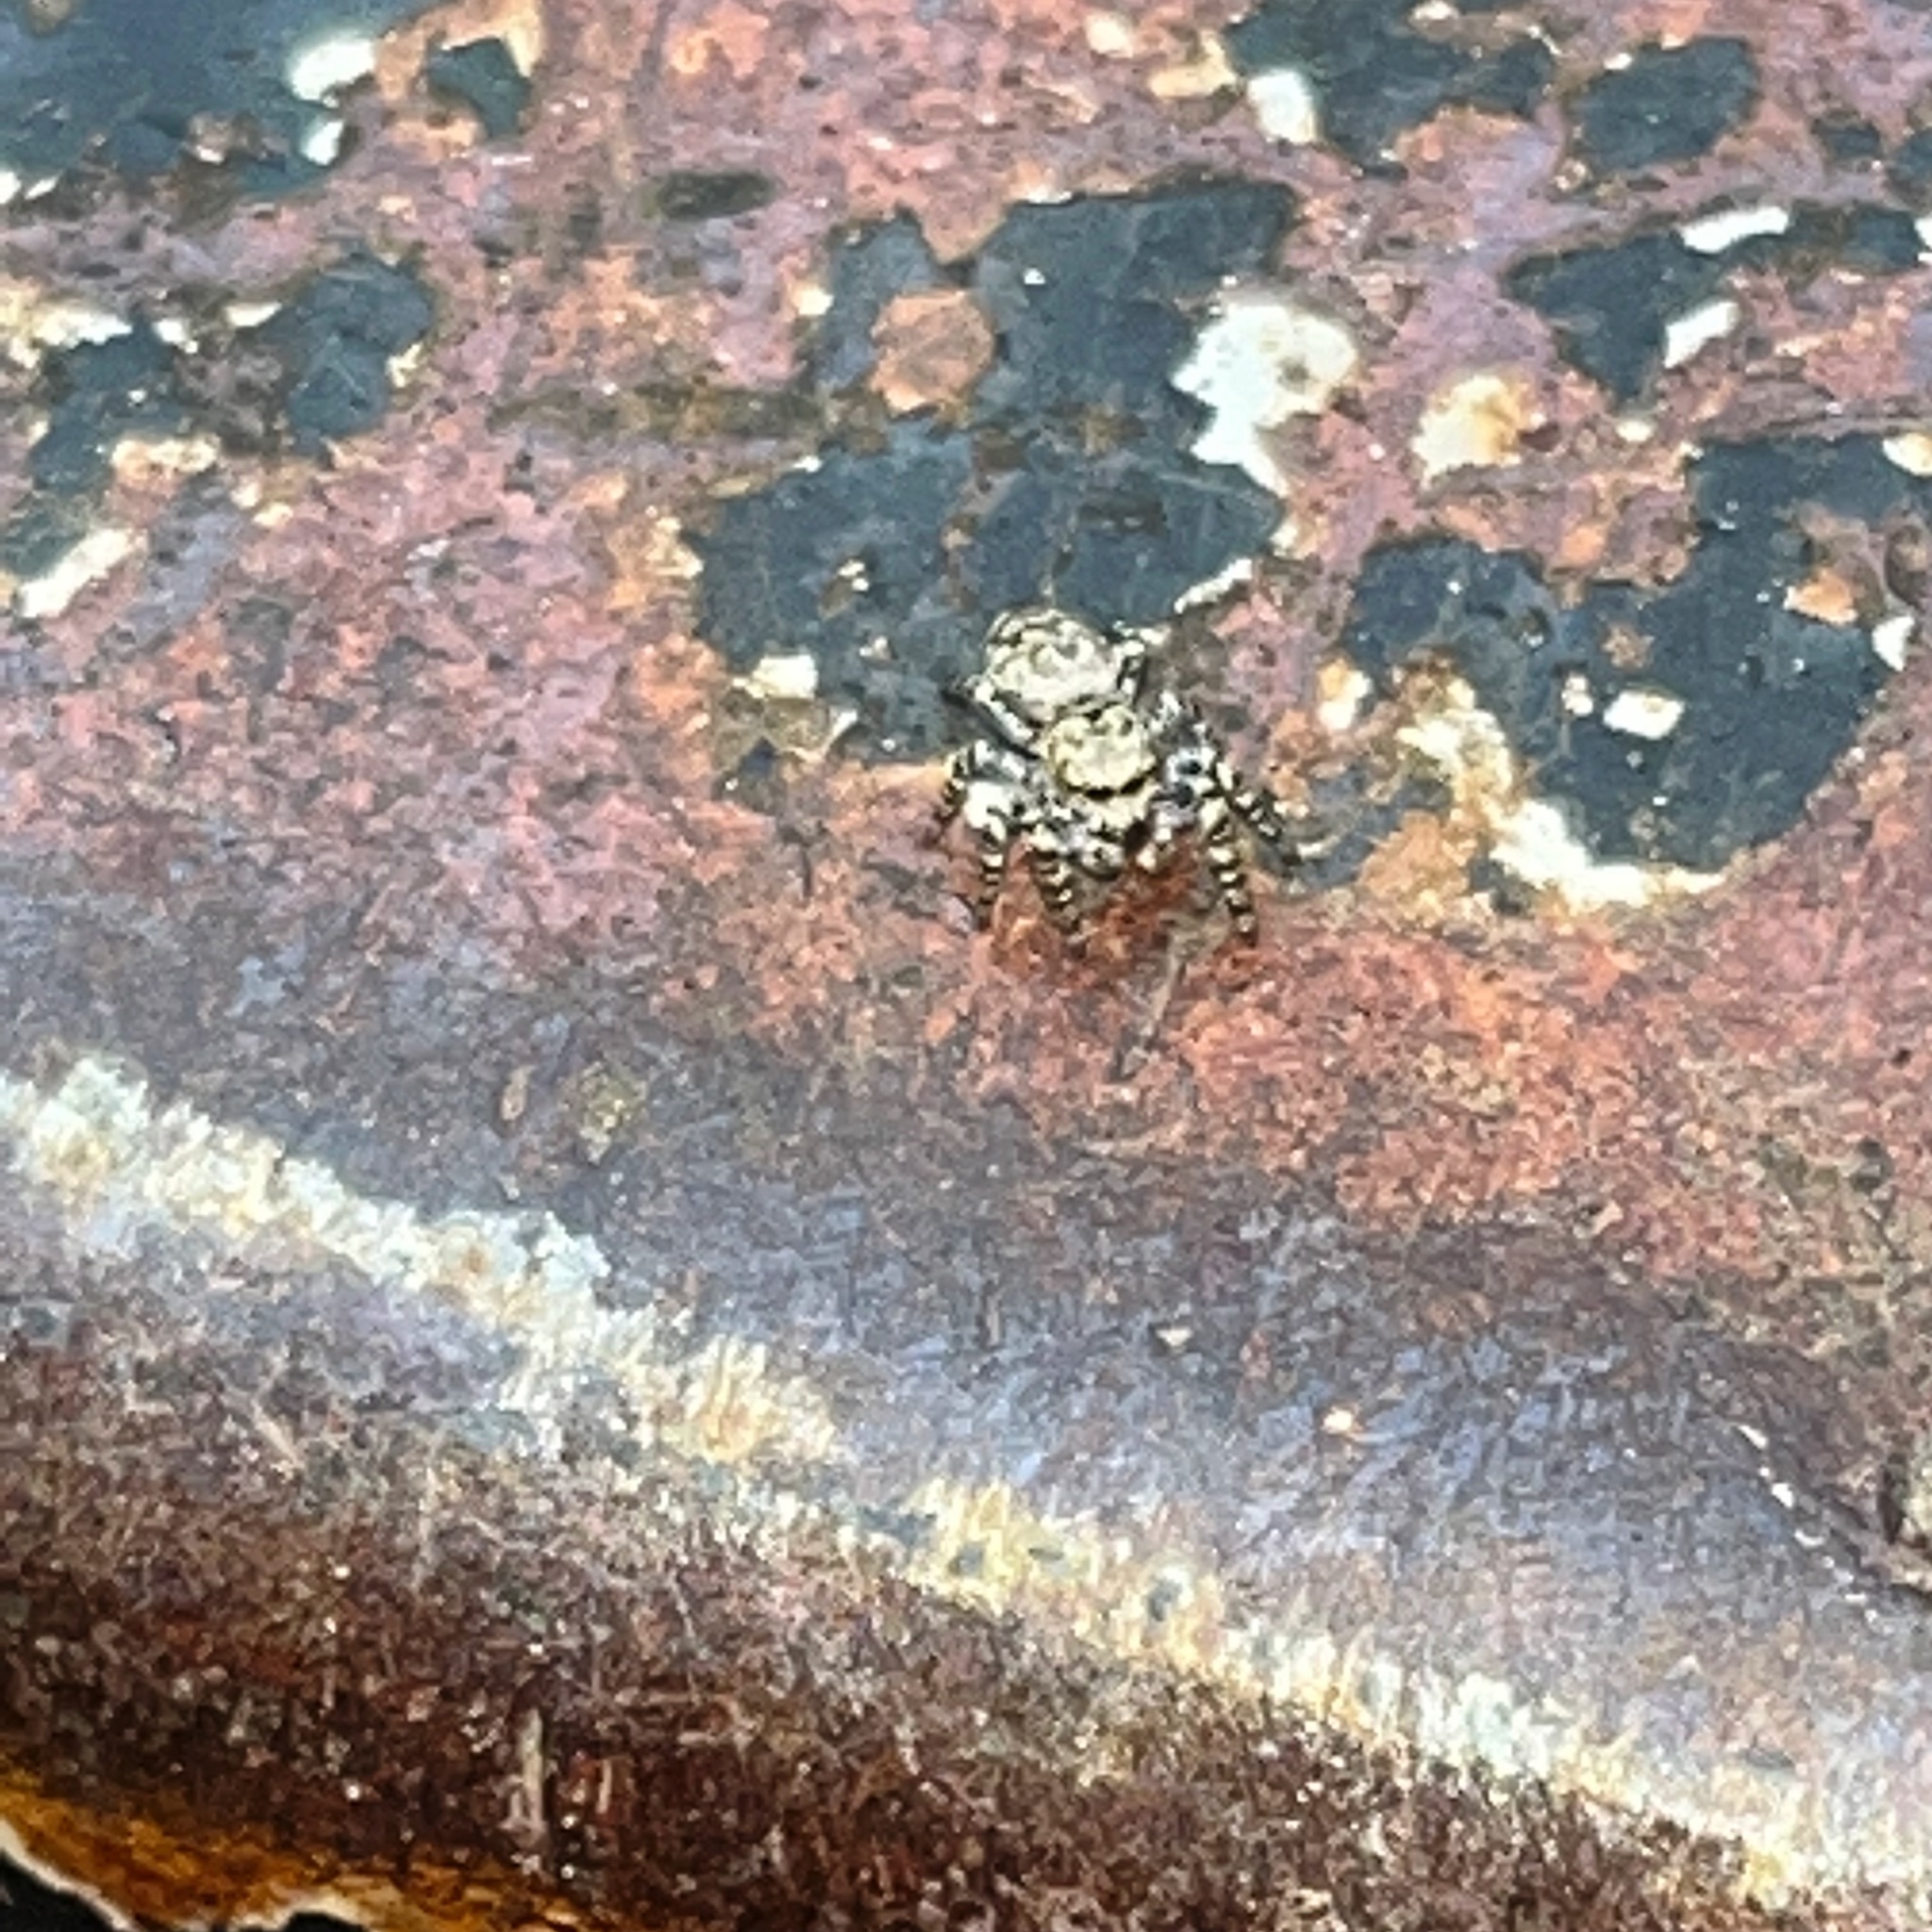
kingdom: Animalia
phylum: Arthropoda
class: Arachnida
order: Araneae
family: Salticidae
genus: Pelegrina
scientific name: Pelegrina galathea
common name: Jumping spiders
